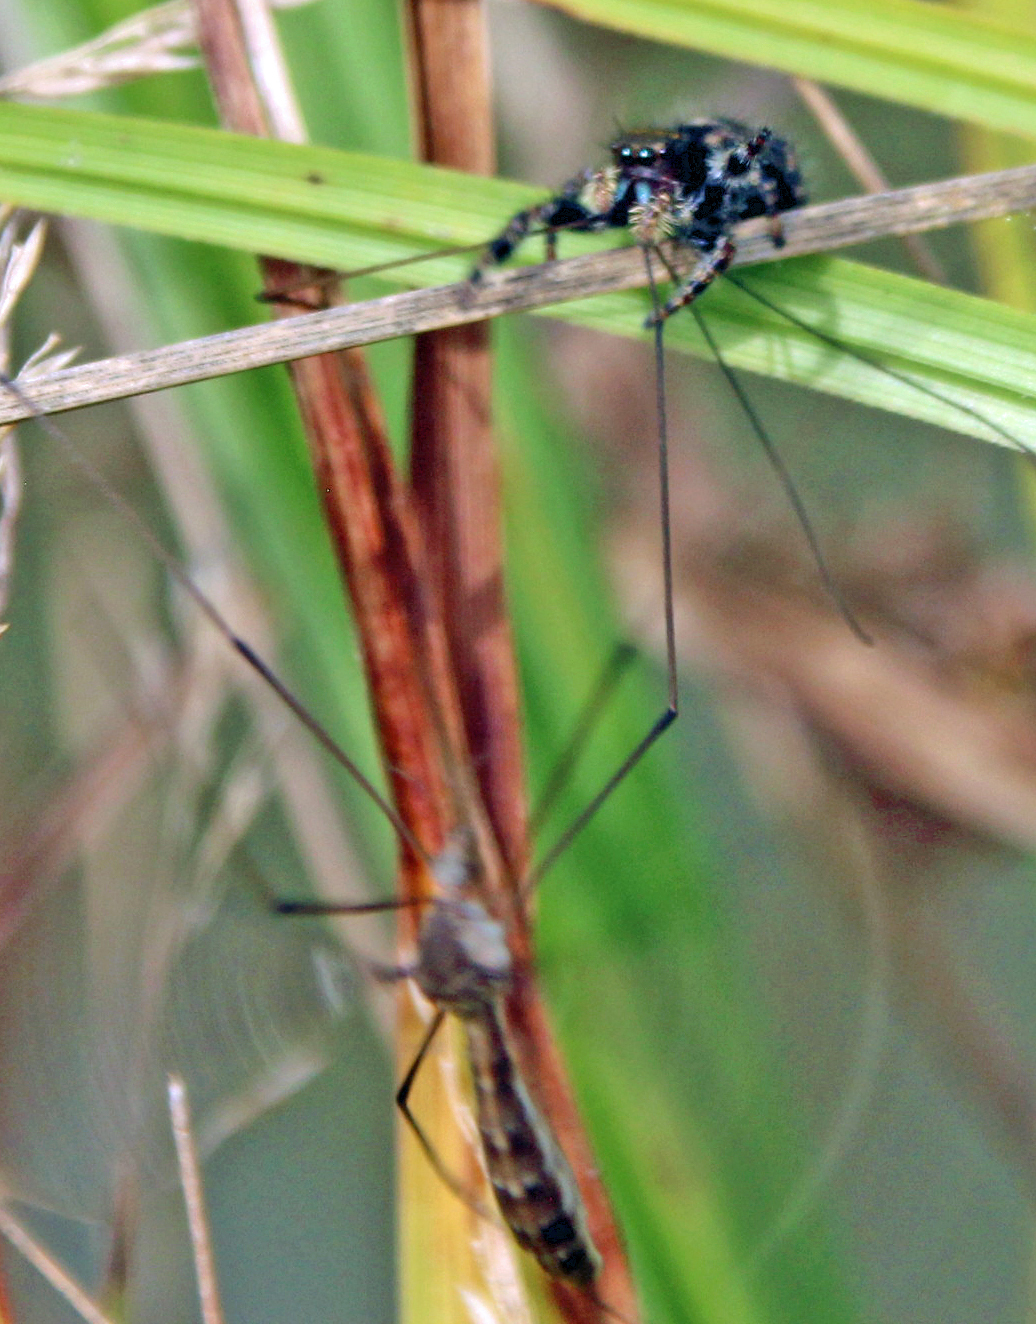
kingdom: Animalia
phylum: Arthropoda
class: Arachnida
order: Araneae
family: Salticidae
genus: Phidippus
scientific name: Phidippus audax
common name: Bold jumper
